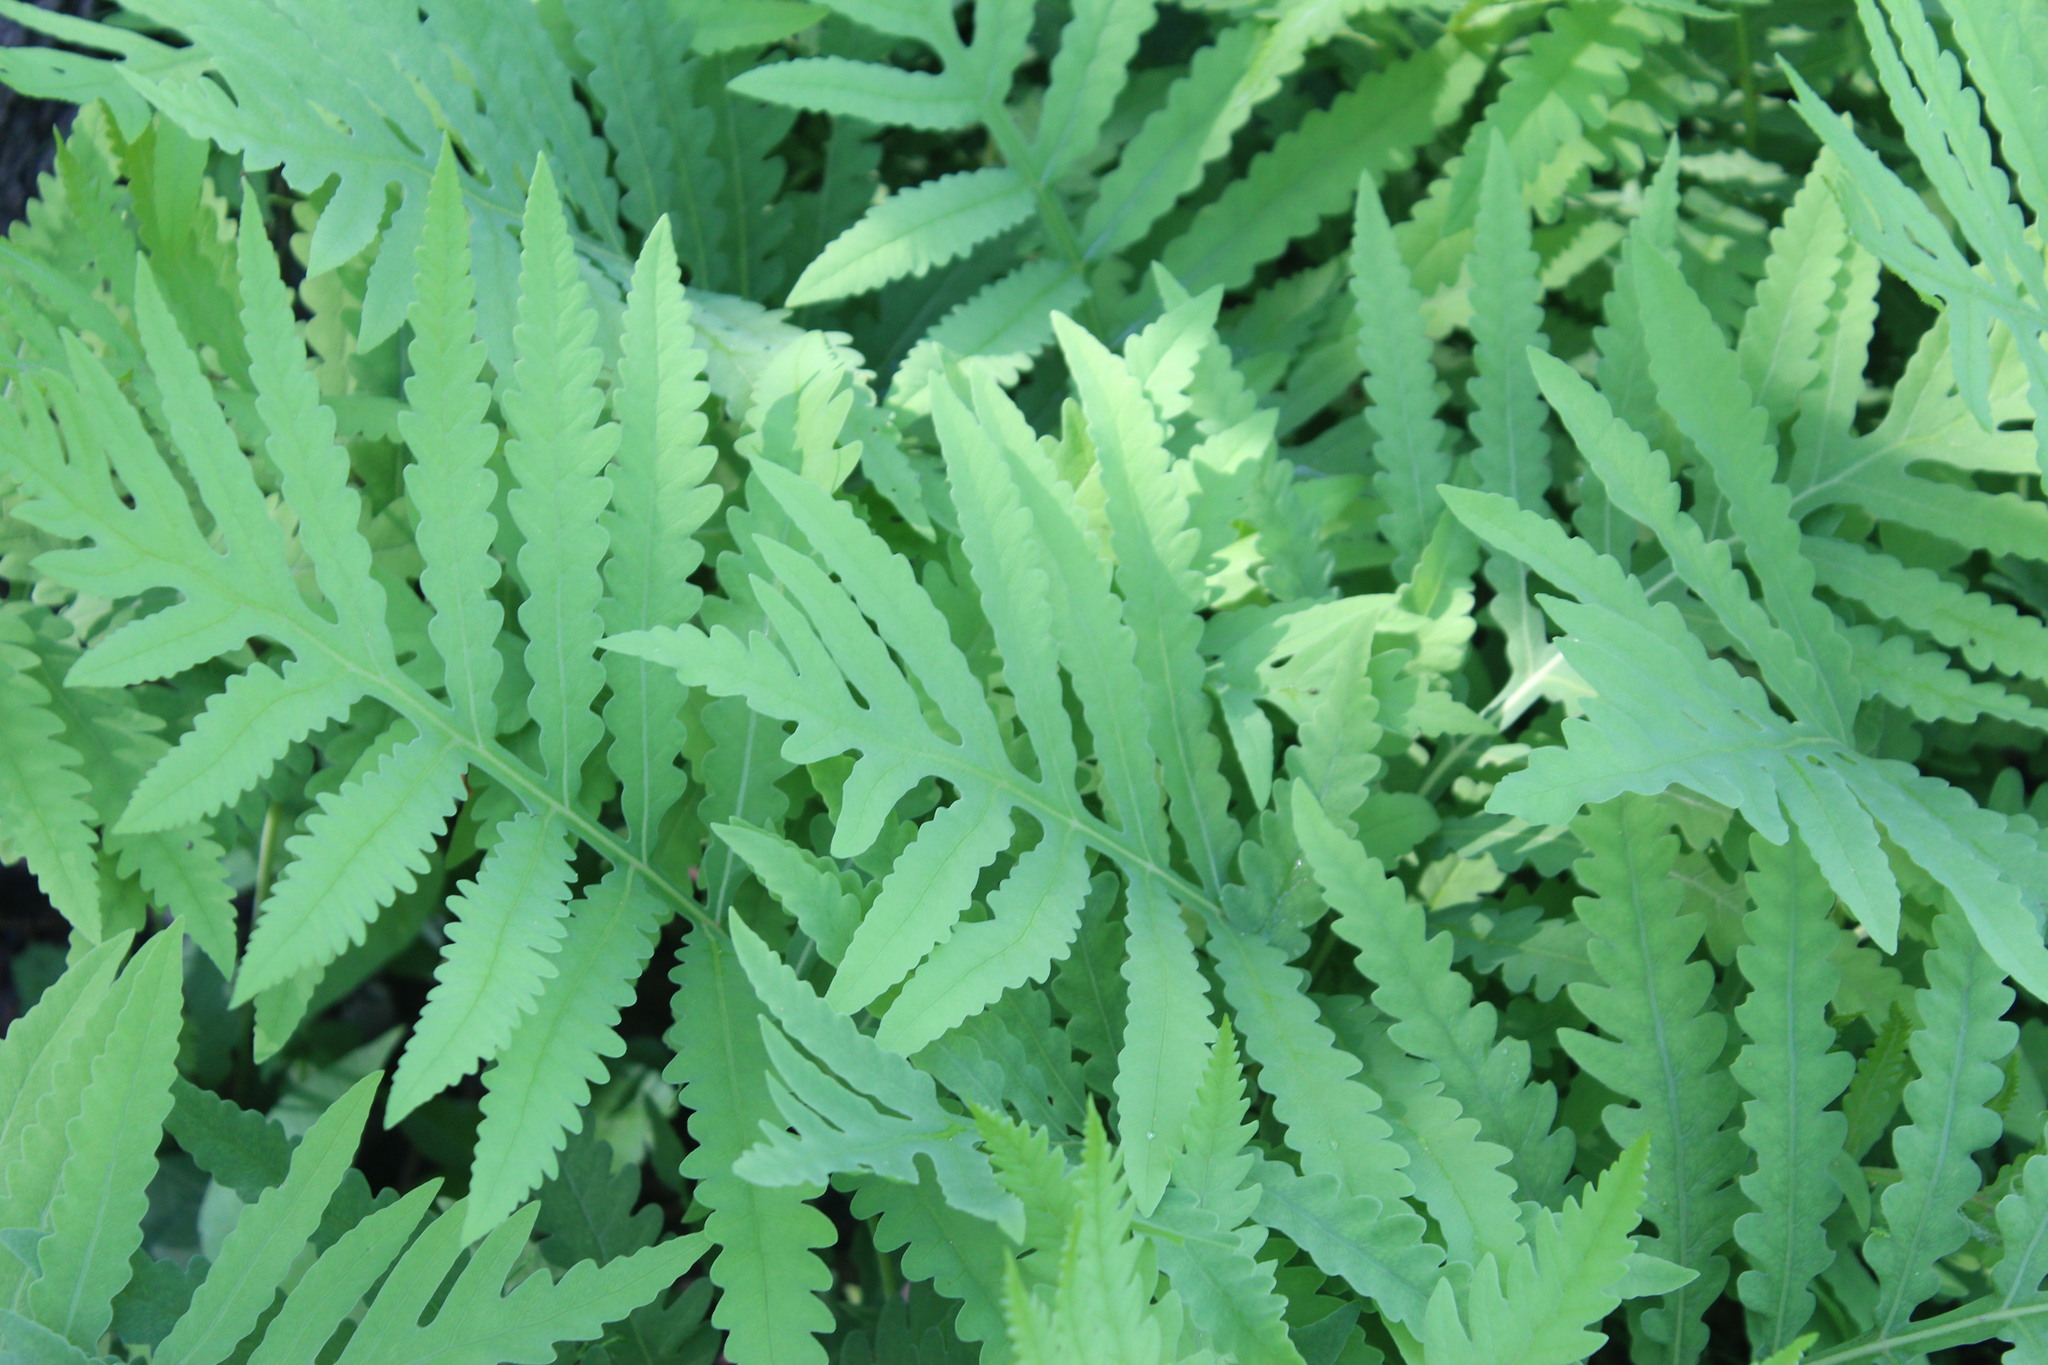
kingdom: Plantae
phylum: Tracheophyta
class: Polypodiopsida
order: Polypodiales
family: Onocleaceae
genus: Onoclea
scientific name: Onoclea sensibilis
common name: Sensitive fern
